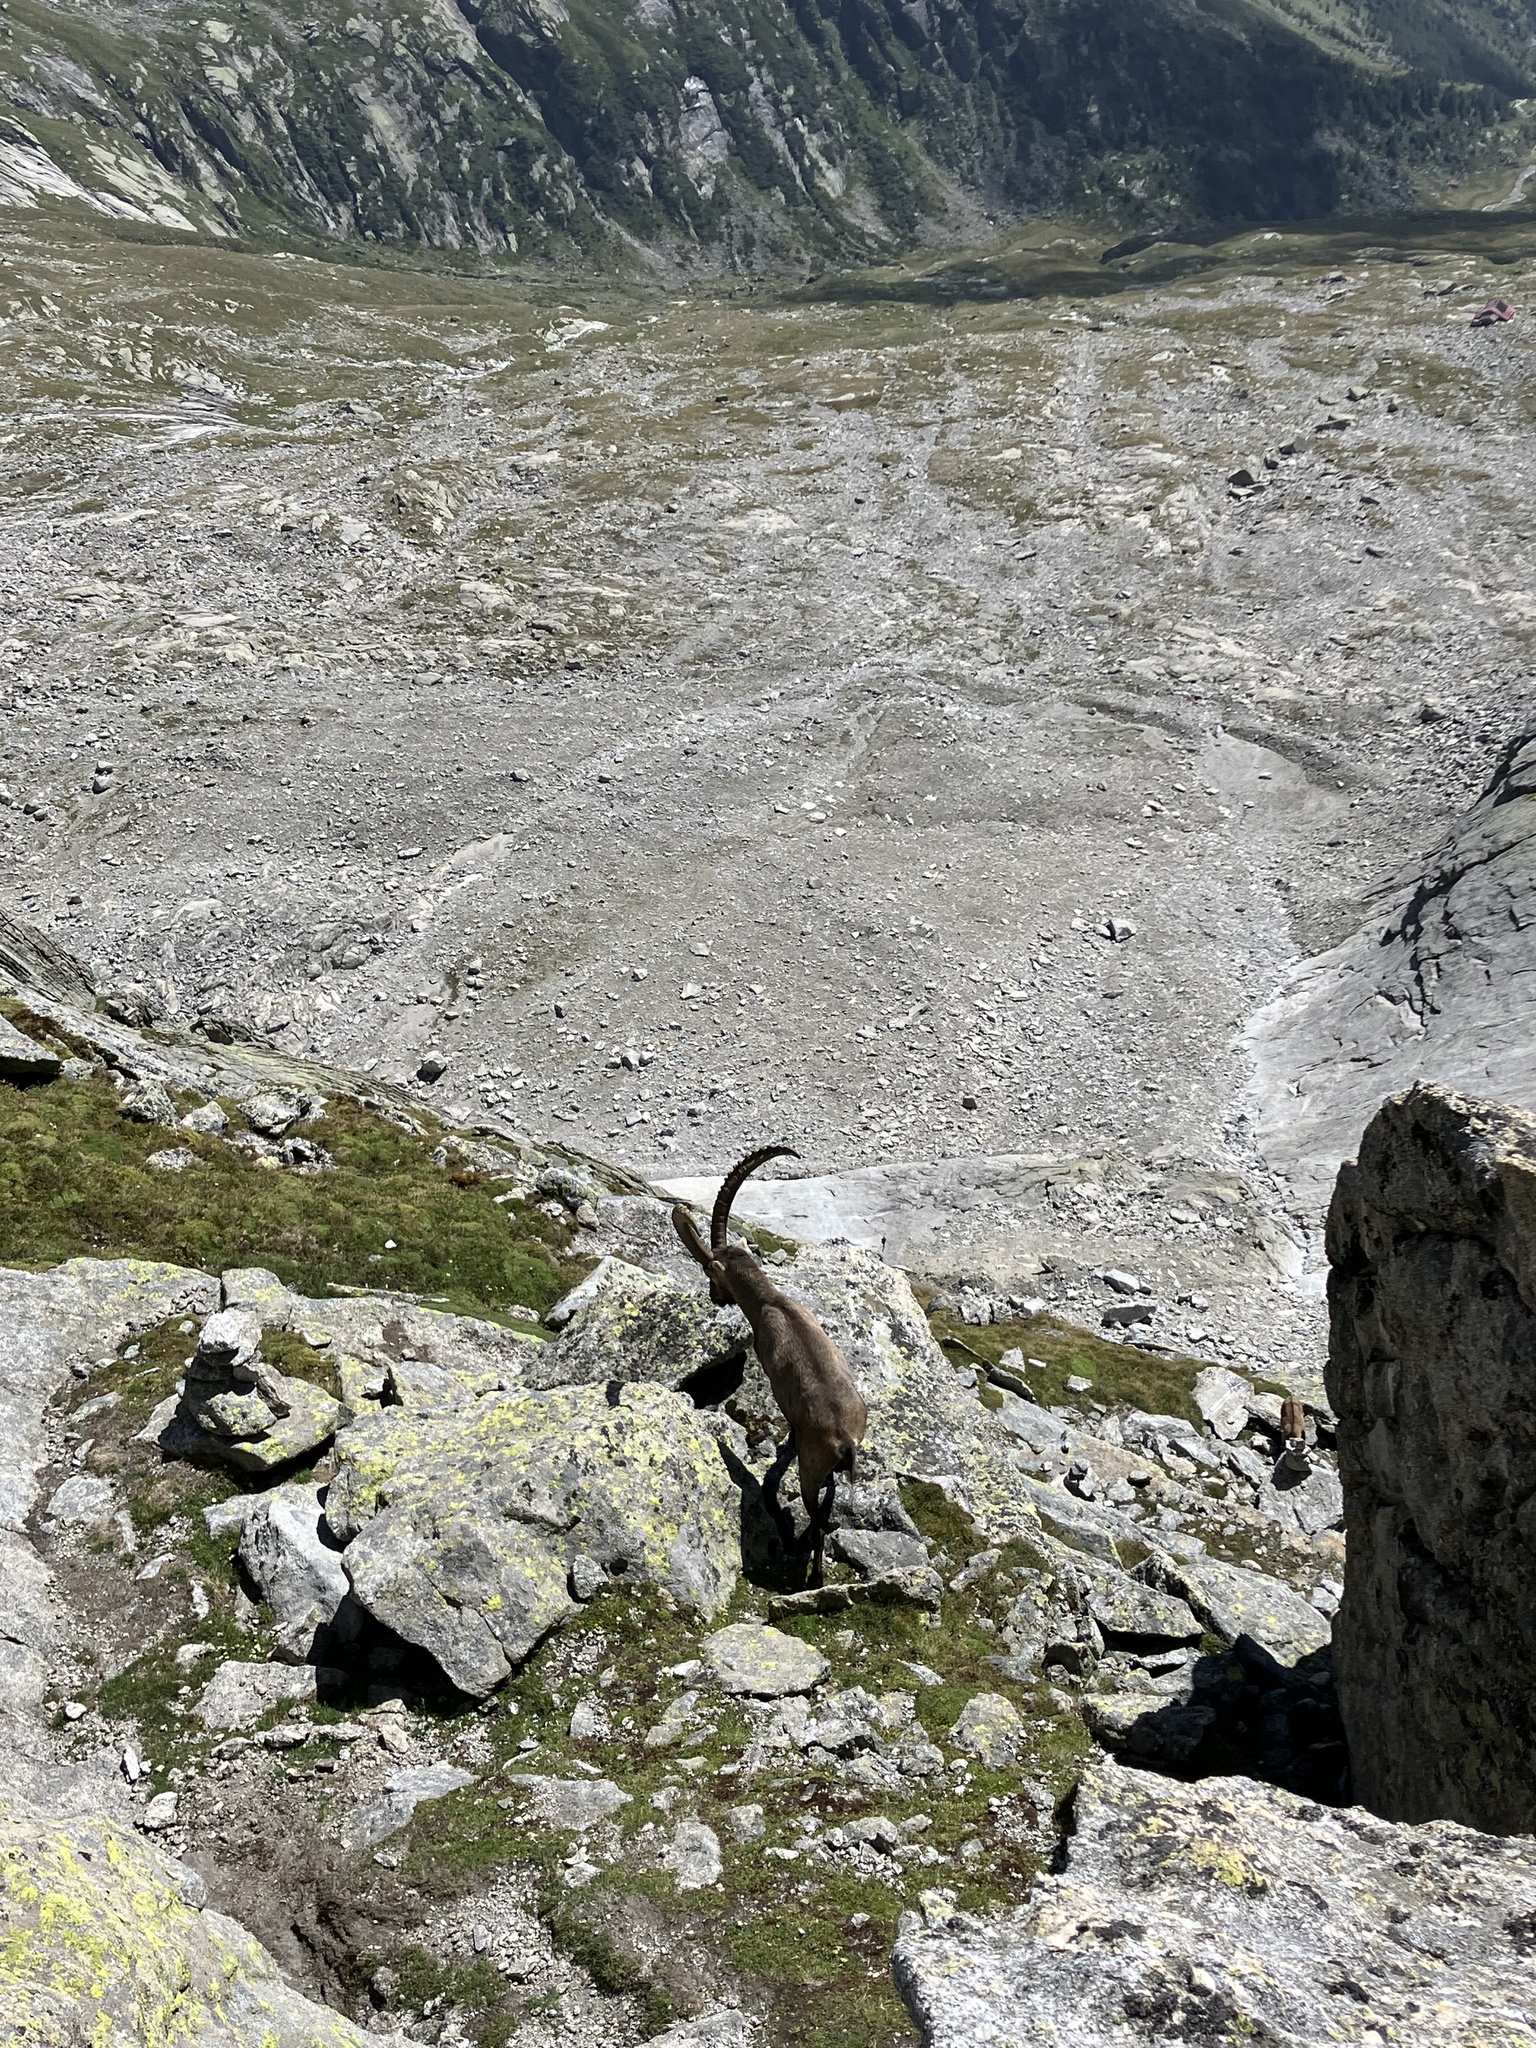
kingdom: Animalia
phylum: Chordata
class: Mammalia
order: Artiodactyla
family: Bovidae
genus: Capra
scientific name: Capra ibex
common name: Alpine ibex
